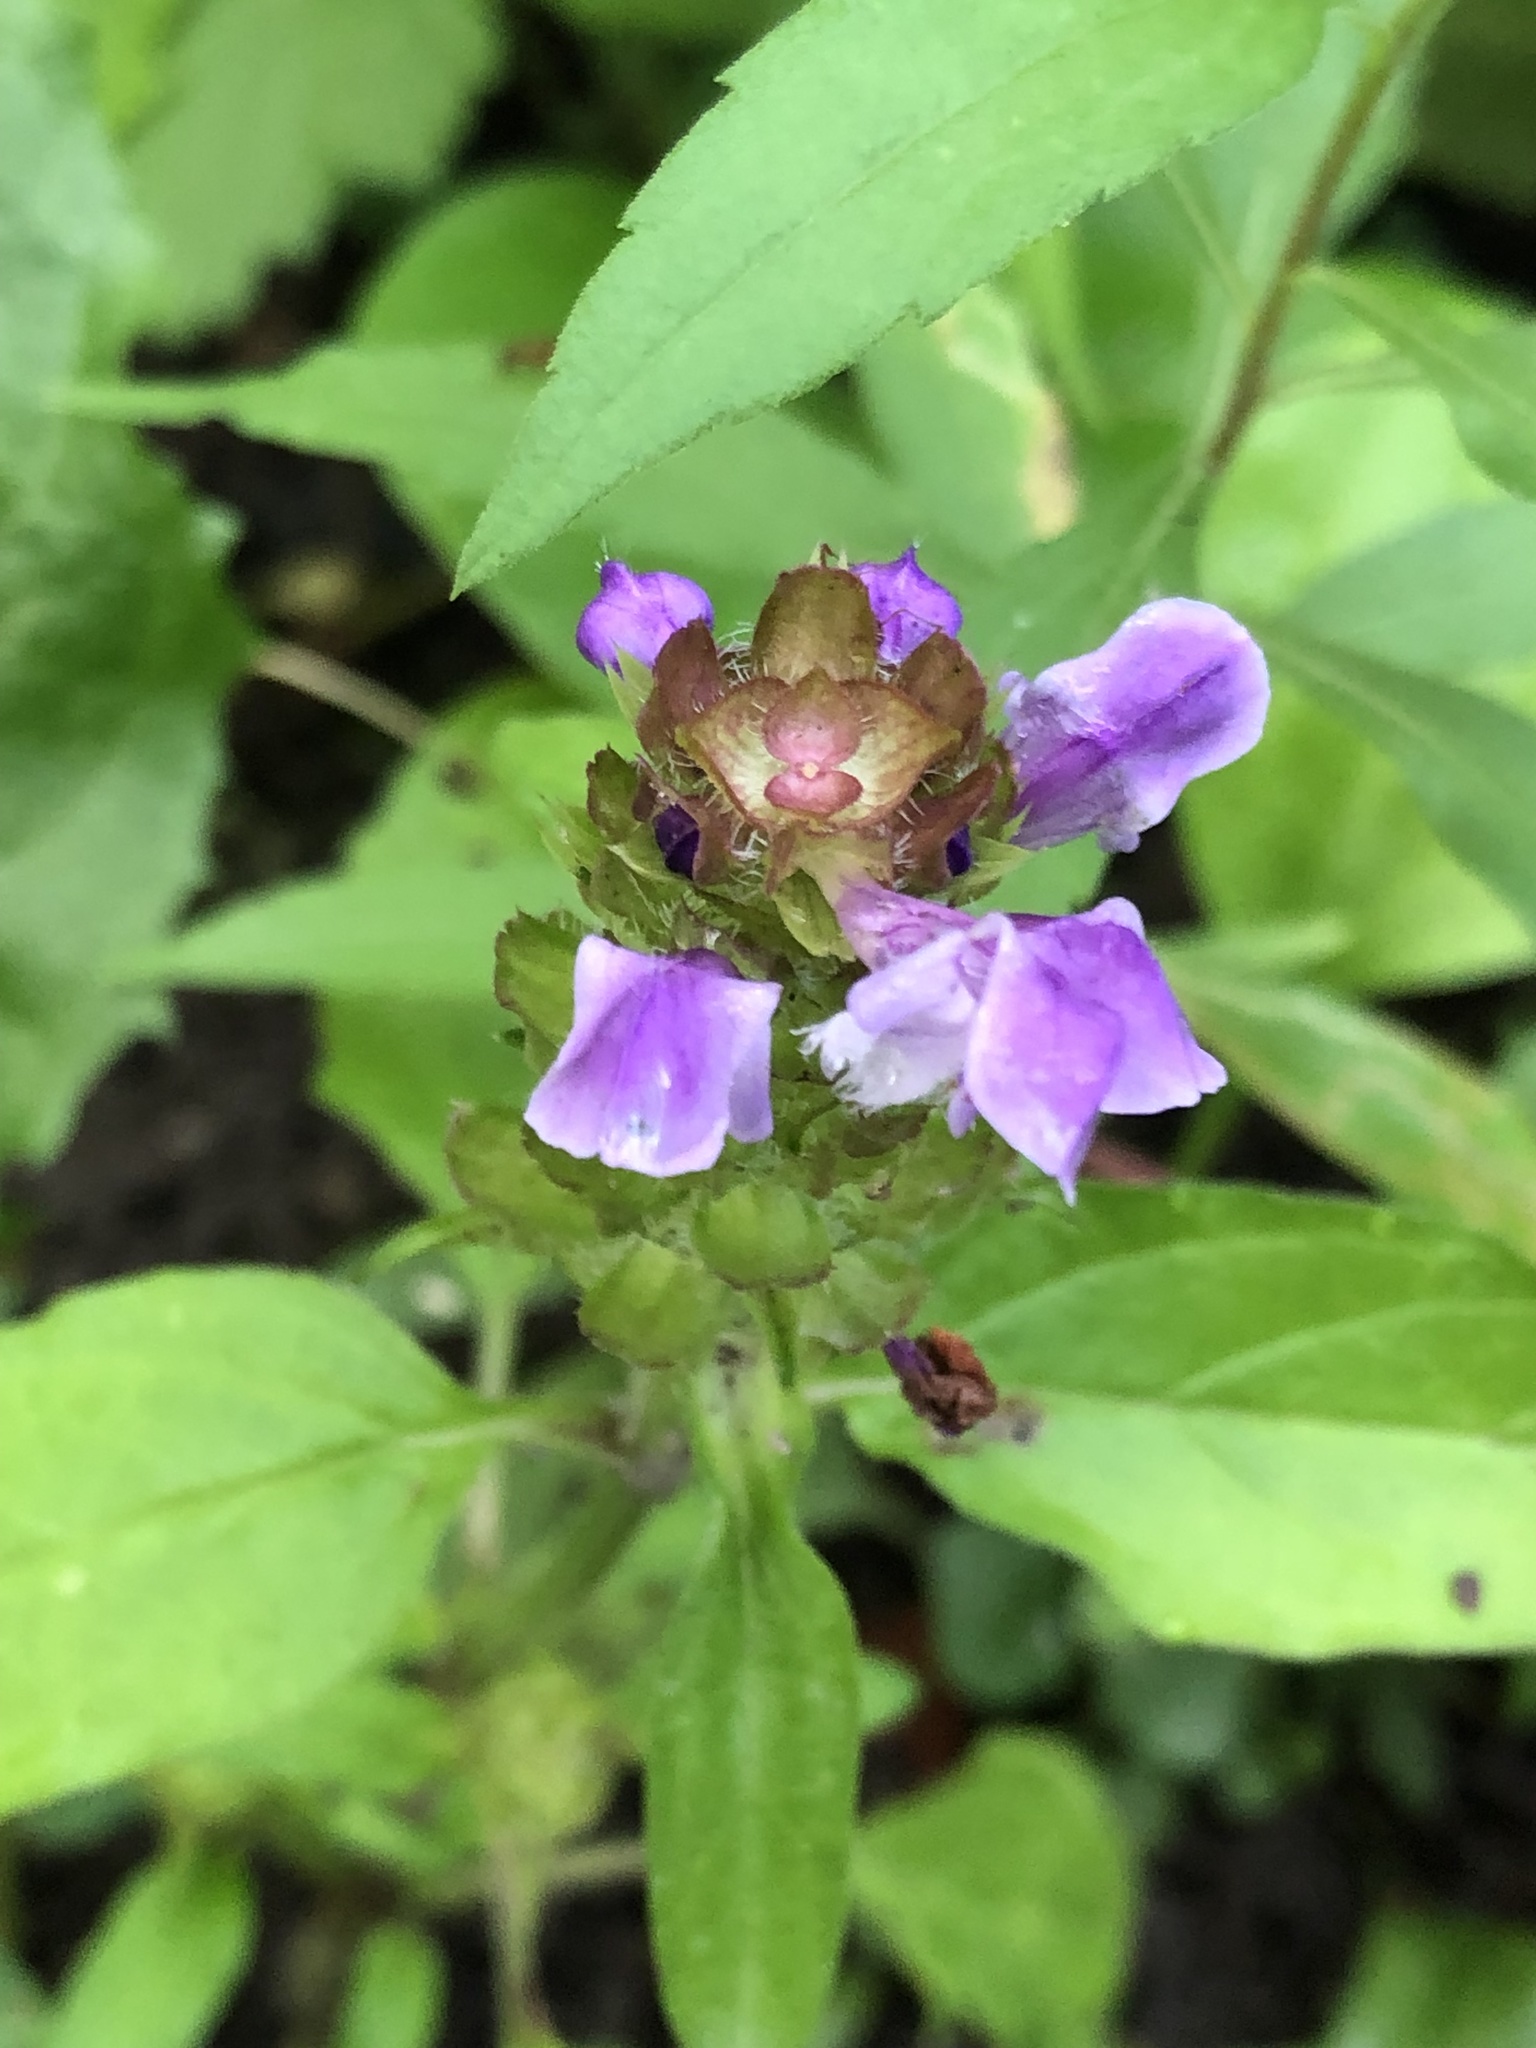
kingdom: Plantae
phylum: Tracheophyta
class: Magnoliopsida
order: Lamiales
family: Lamiaceae
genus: Prunella
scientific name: Prunella vulgaris
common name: Heal-all
